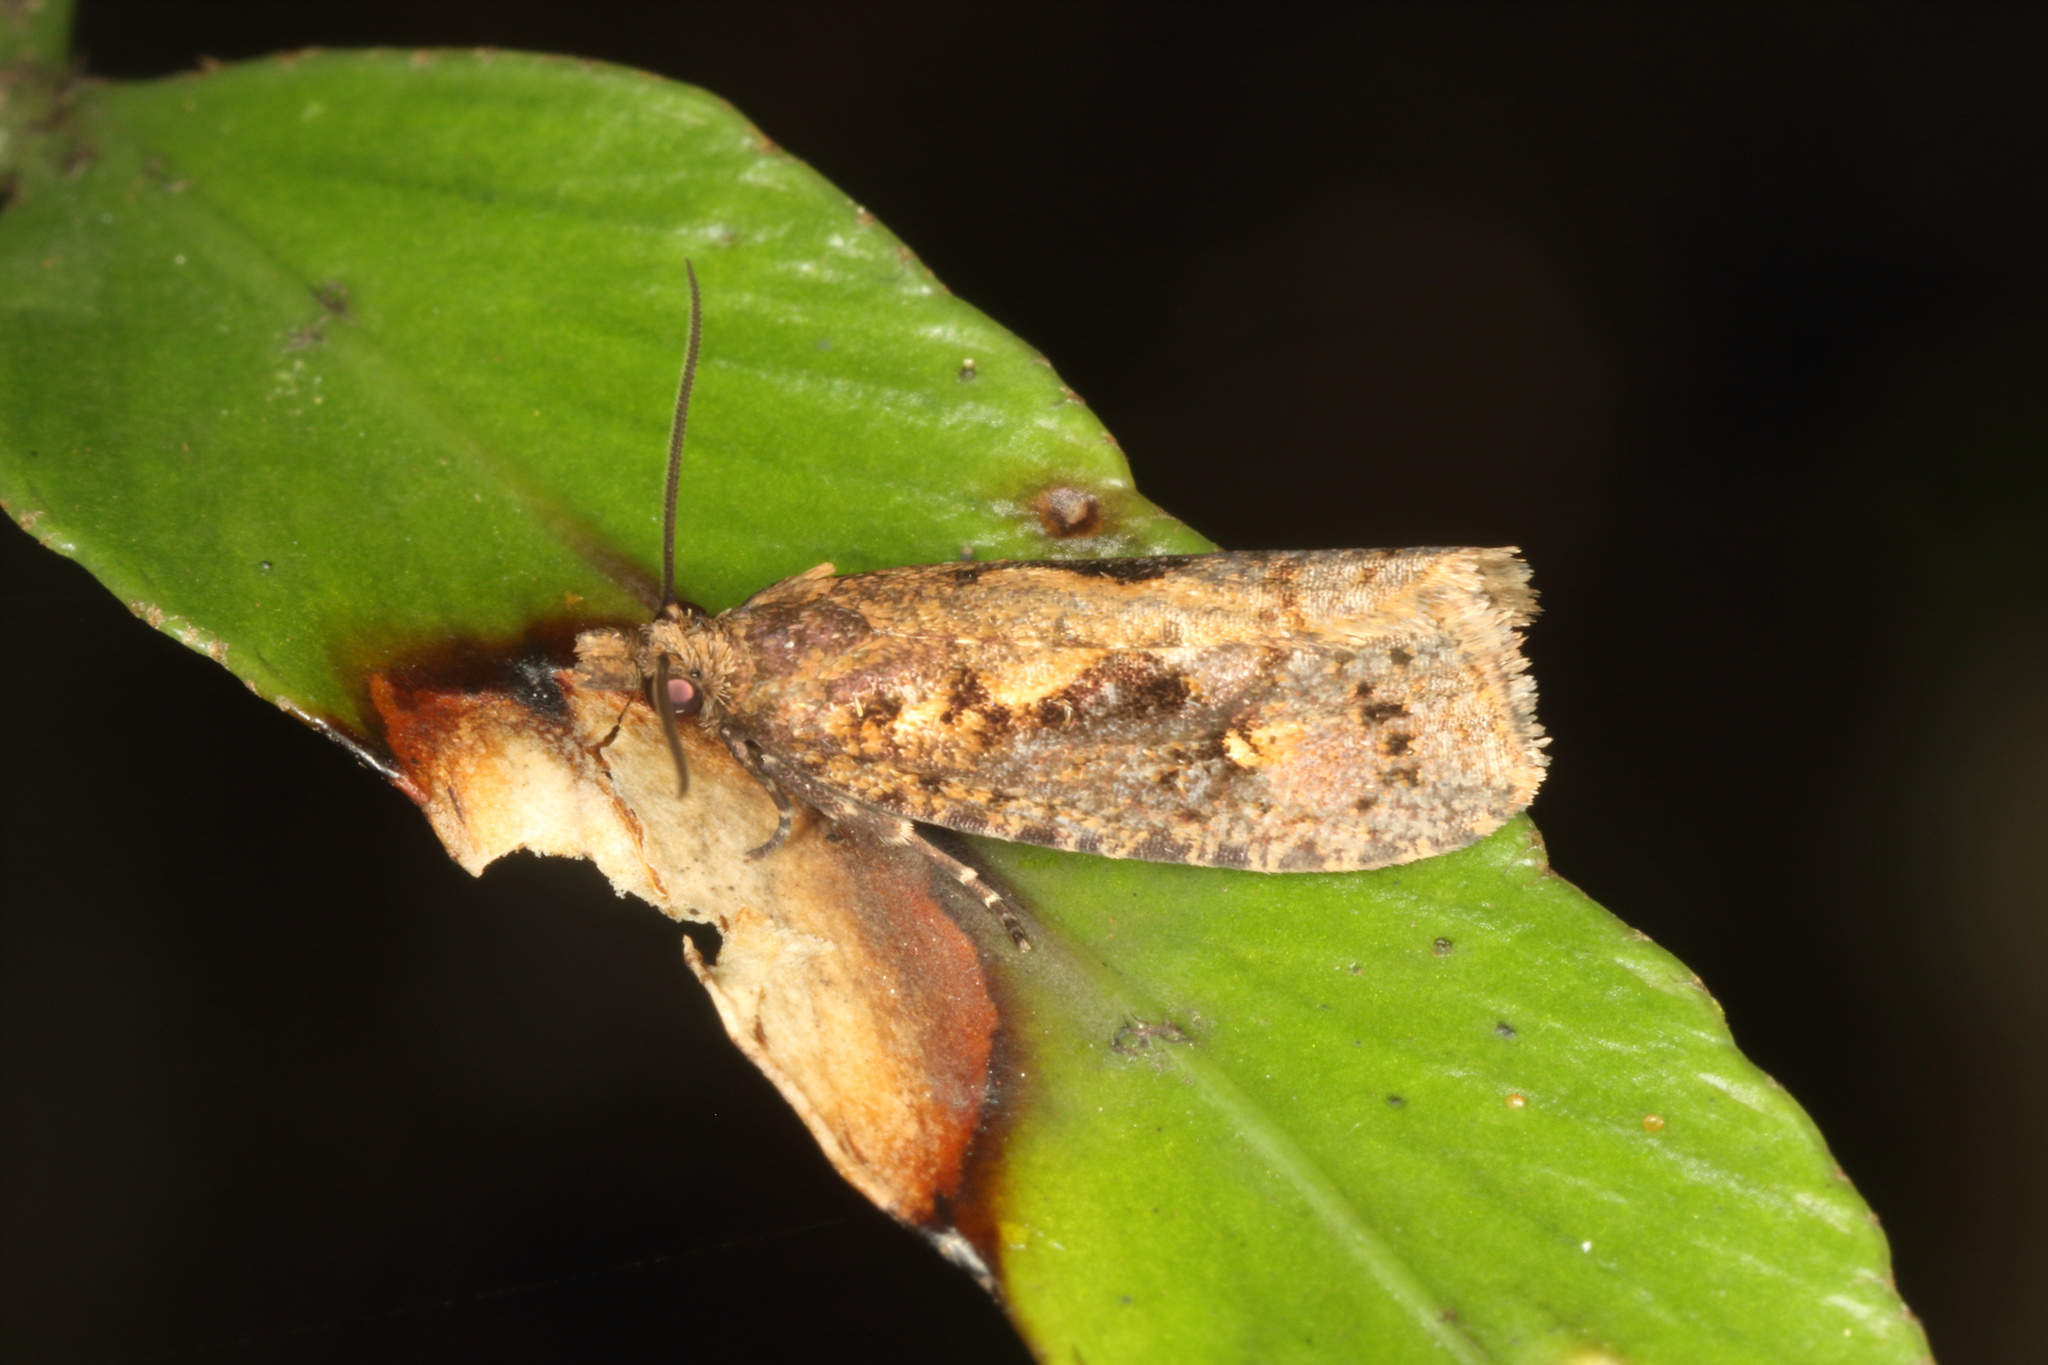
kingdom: Animalia
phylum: Arthropoda
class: Insecta
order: Lepidoptera
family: Tortricidae
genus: Cryptaspasma
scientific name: Cryptaspasma querula
